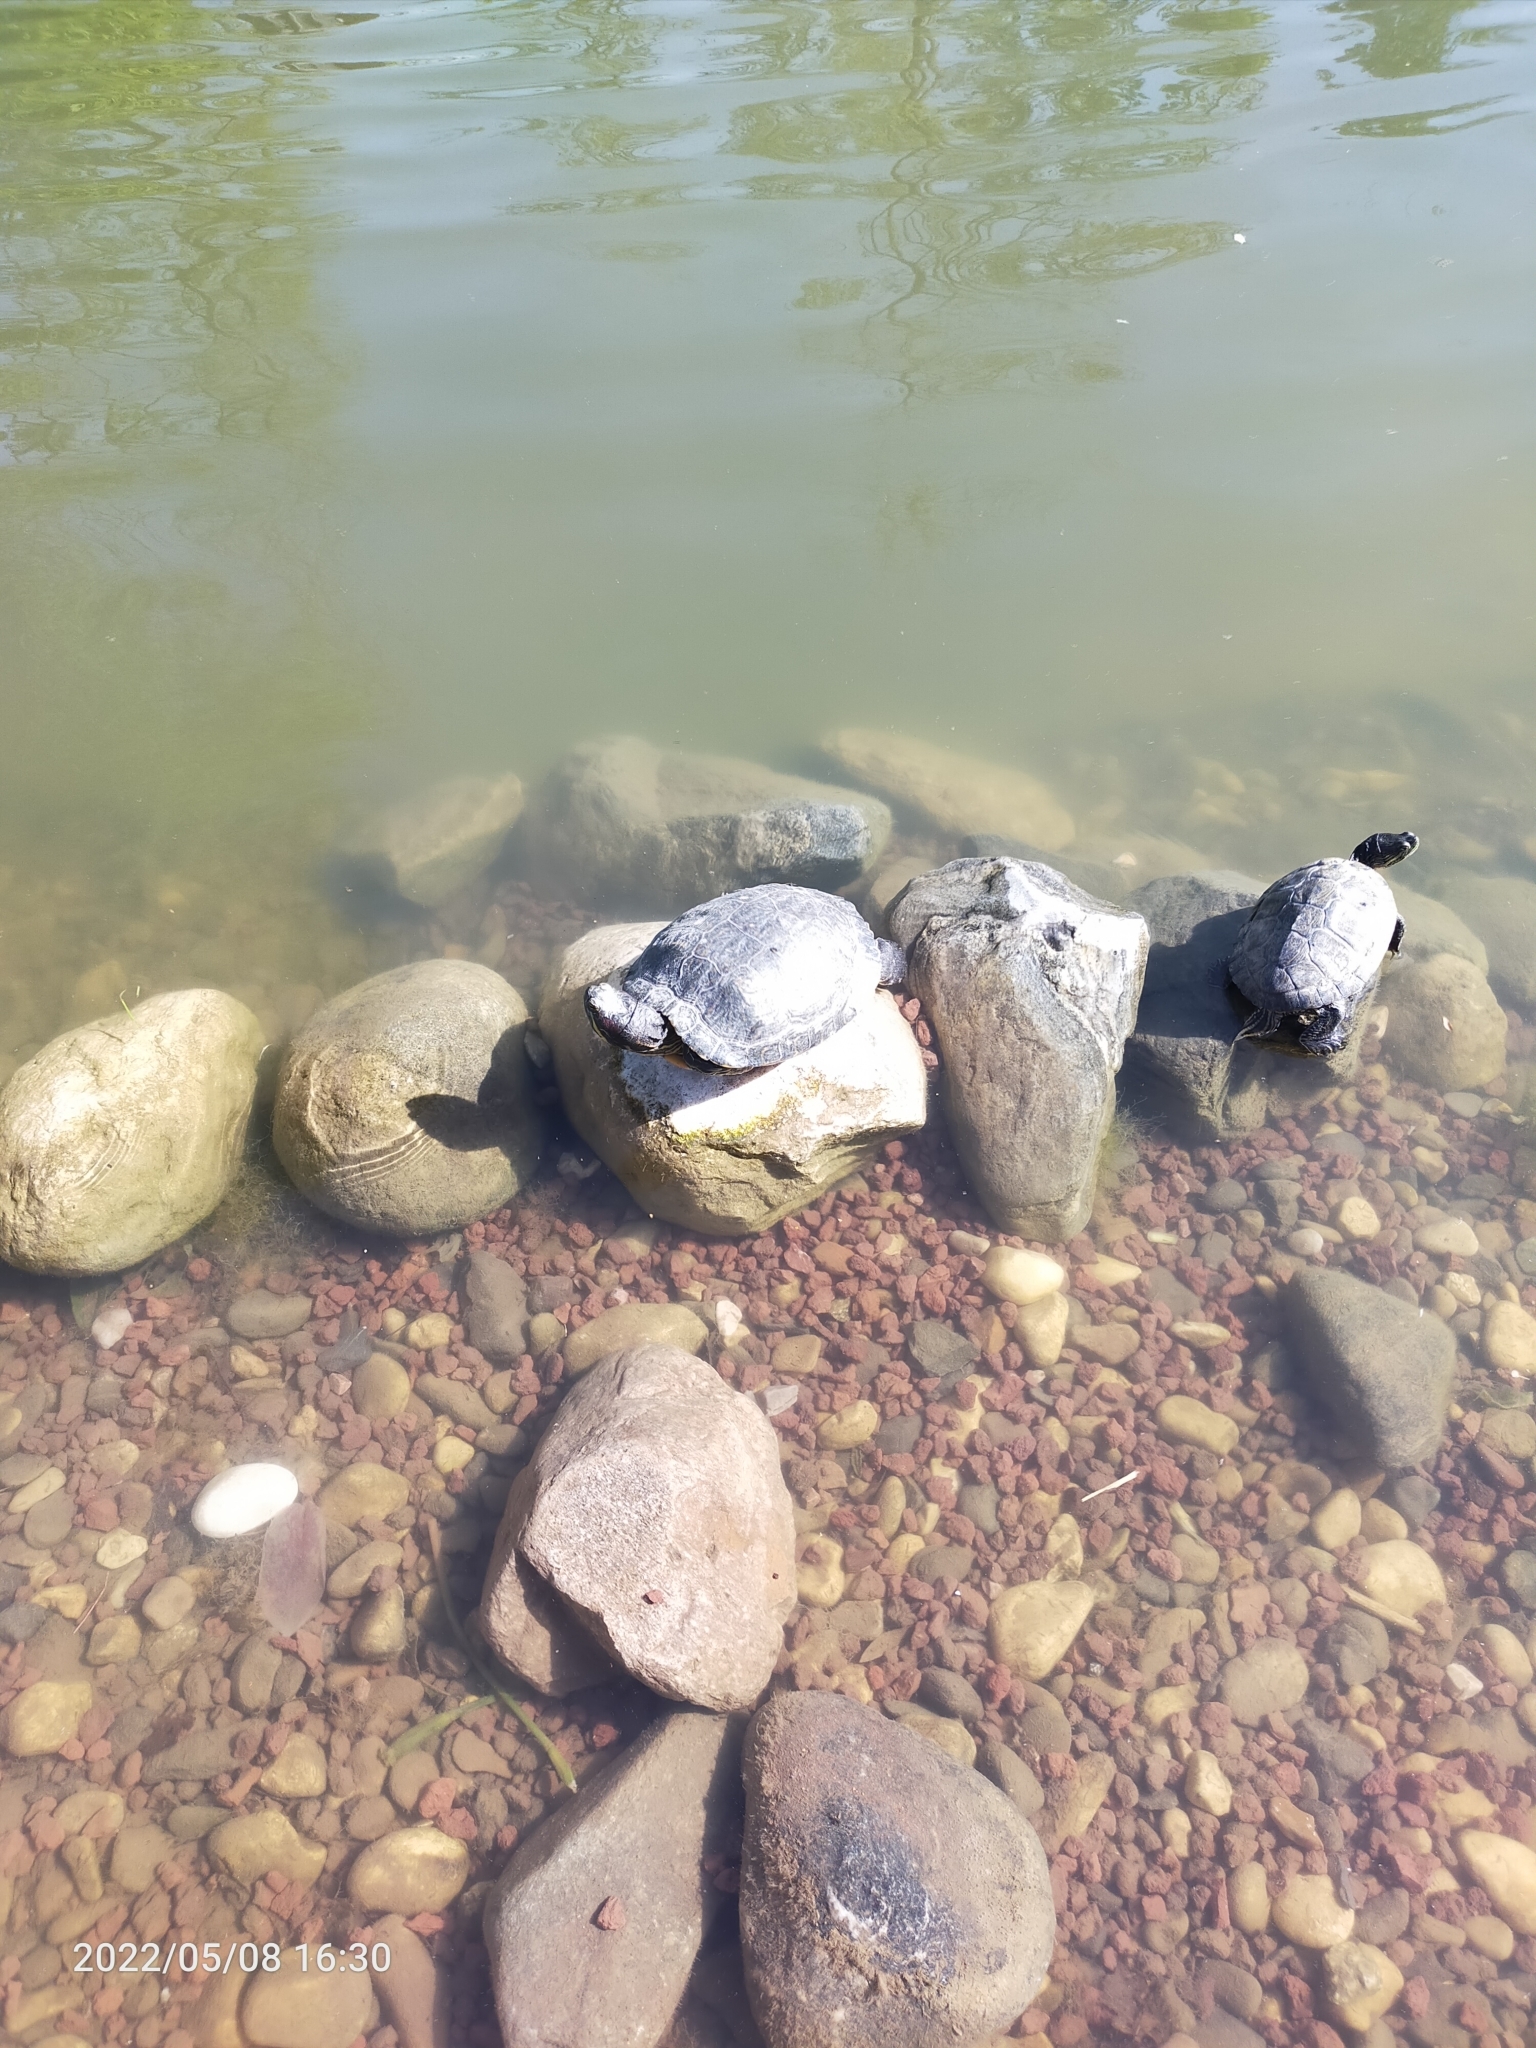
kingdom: Animalia
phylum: Chordata
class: Testudines
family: Emydidae
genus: Trachemys
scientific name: Trachemys scripta
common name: Slider
